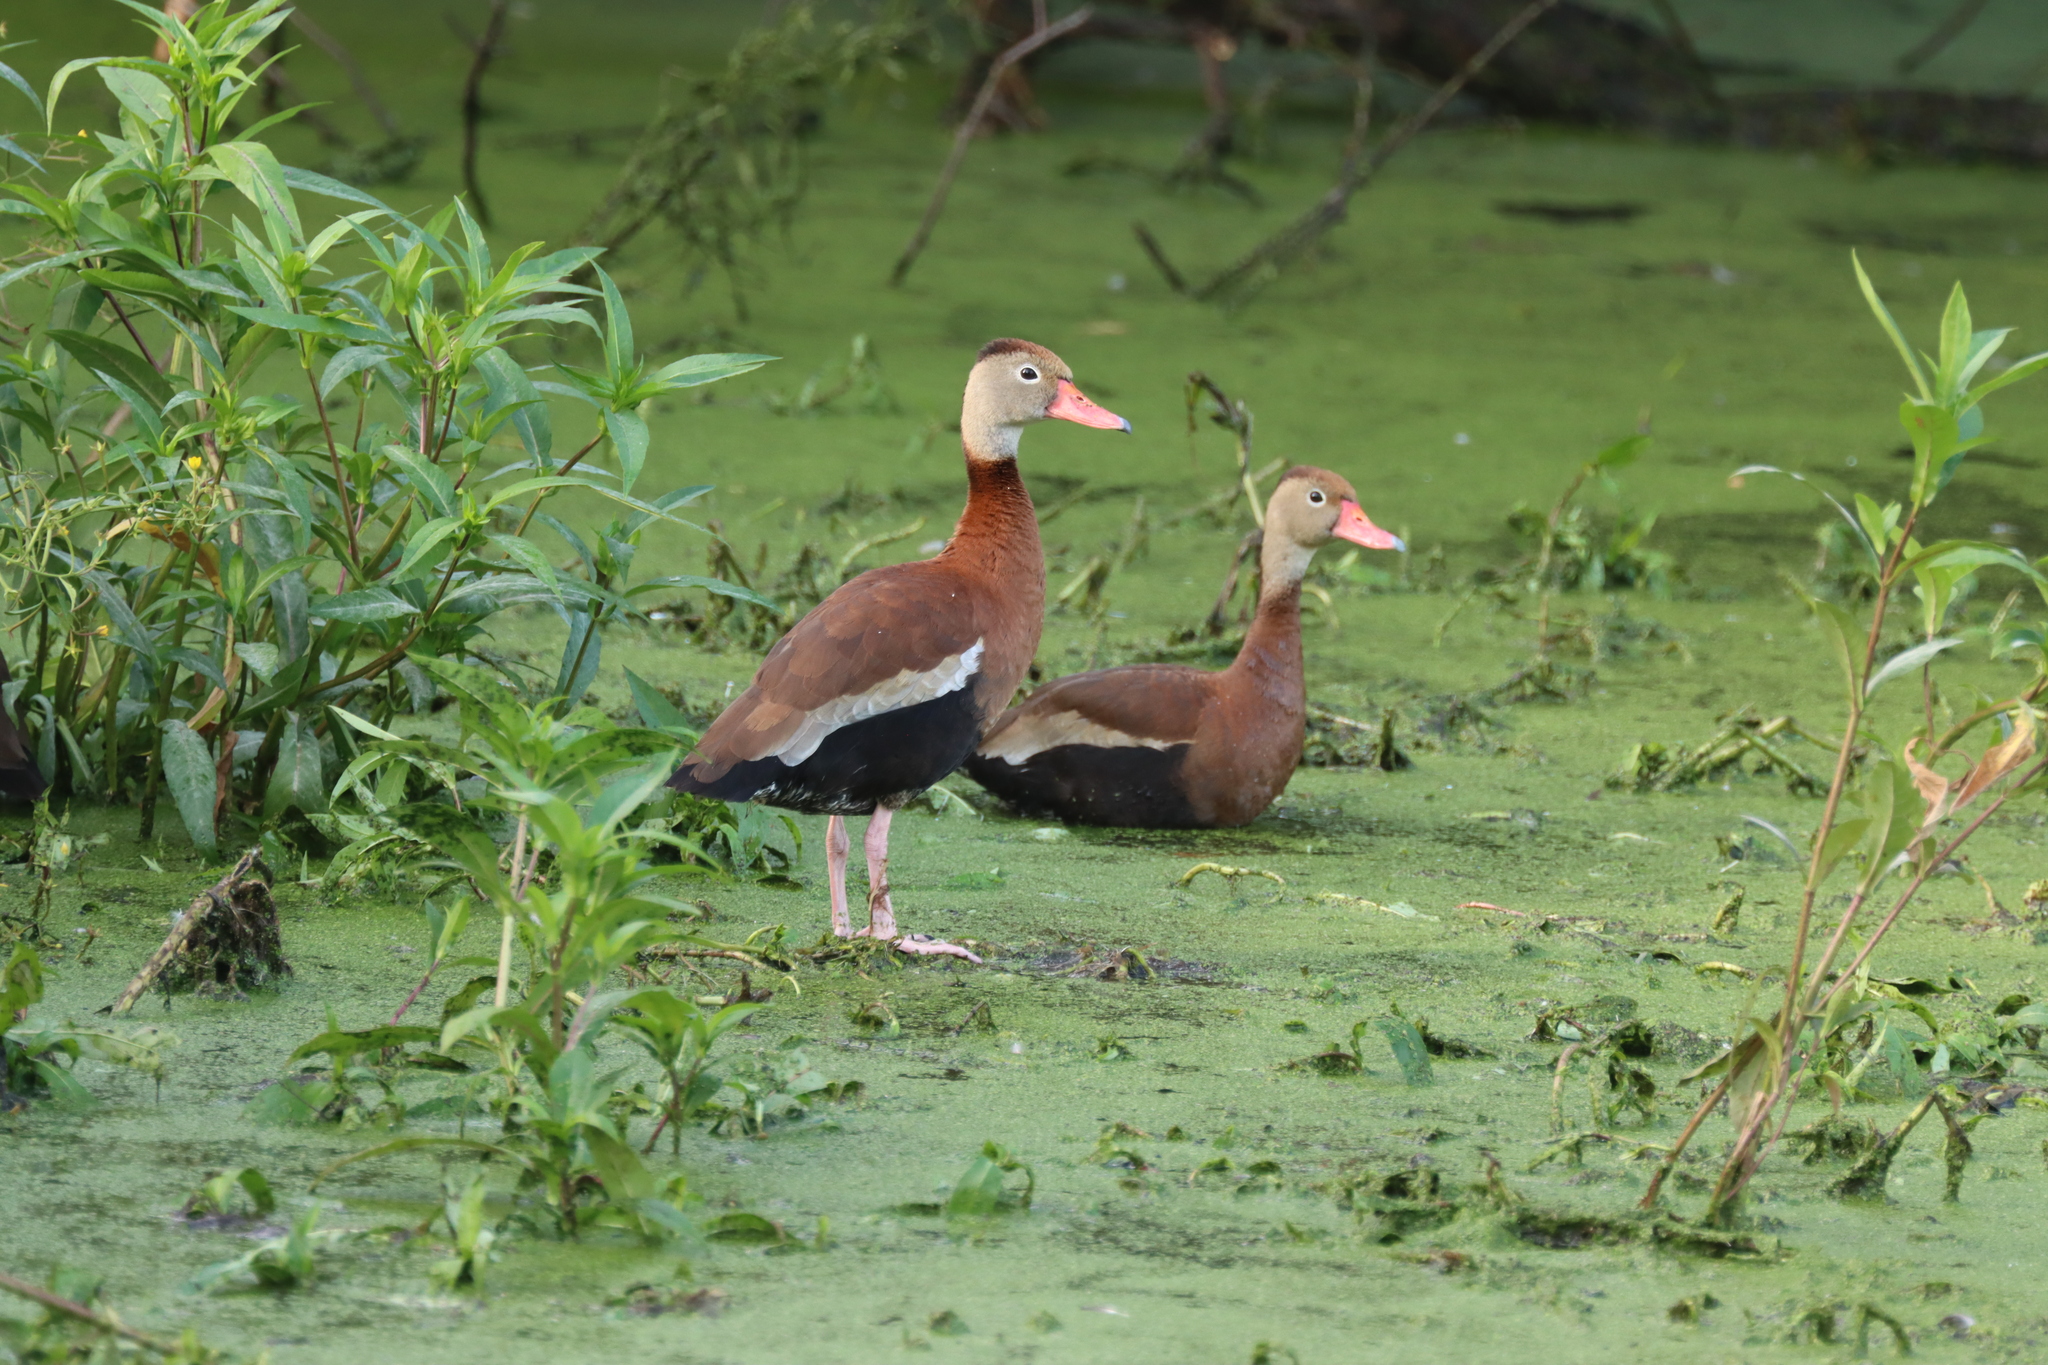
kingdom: Animalia
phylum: Chordata
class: Aves
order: Anseriformes
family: Anatidae
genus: Dendrocygna
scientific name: Dendrocygna autumnalis
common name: Black-bellied whistling duck
